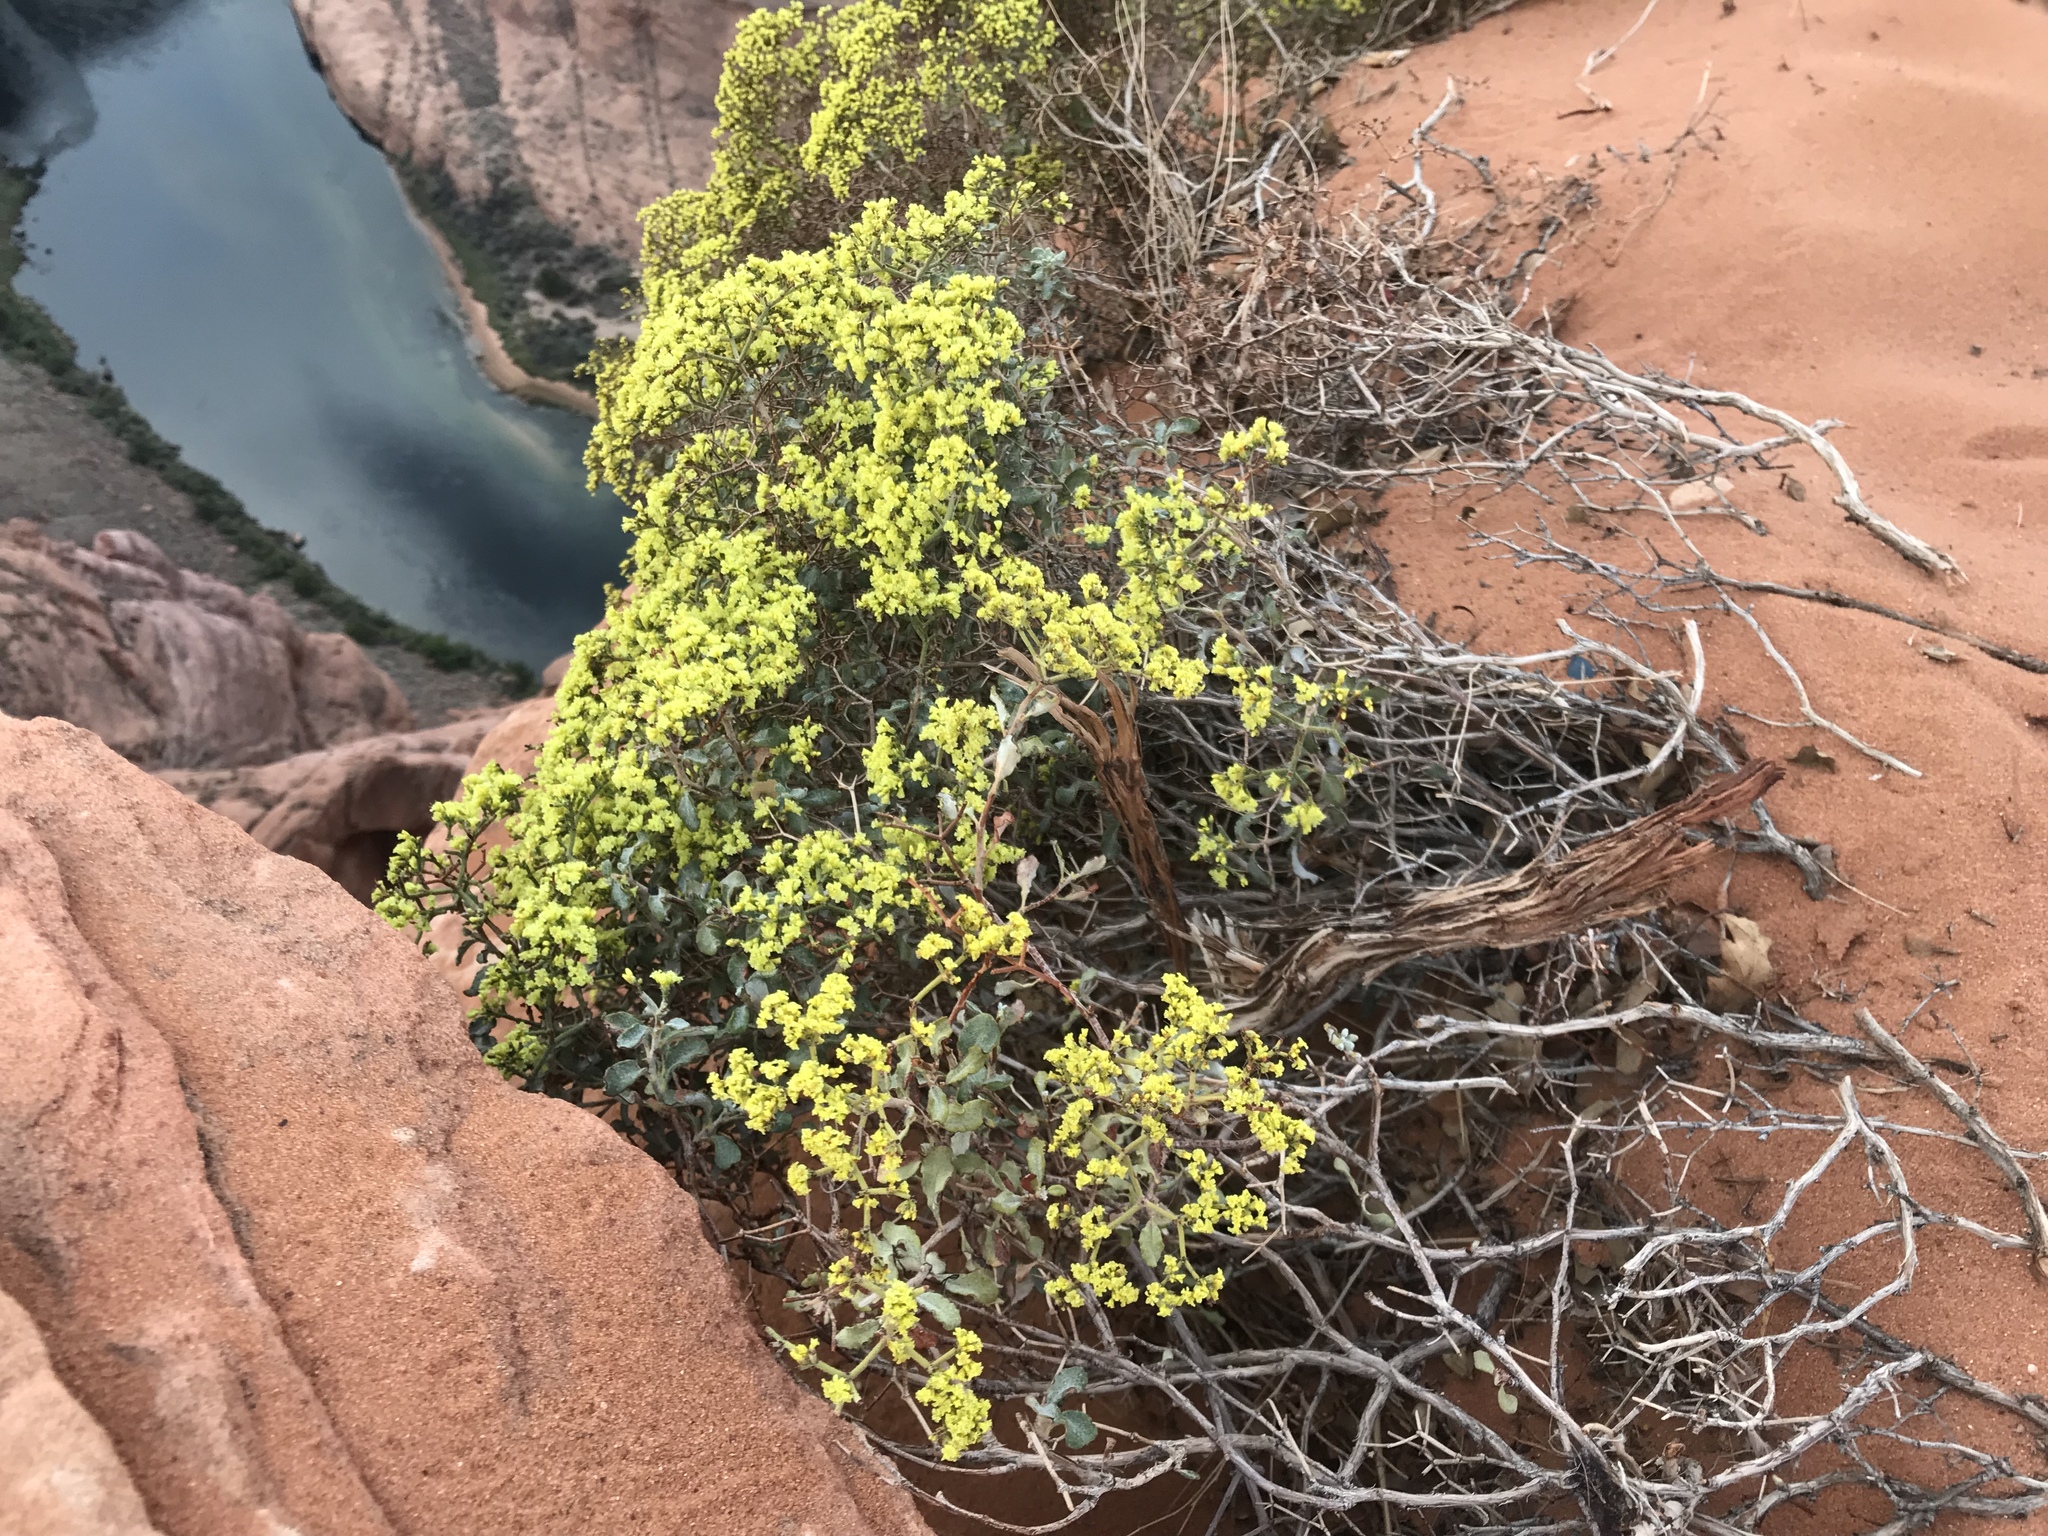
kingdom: Plantae
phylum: Tracheophyta
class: Magnoliopsida
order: Caryophyllales
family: Polygonaceae
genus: Eriogonum
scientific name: Eriogonum corymbosum
